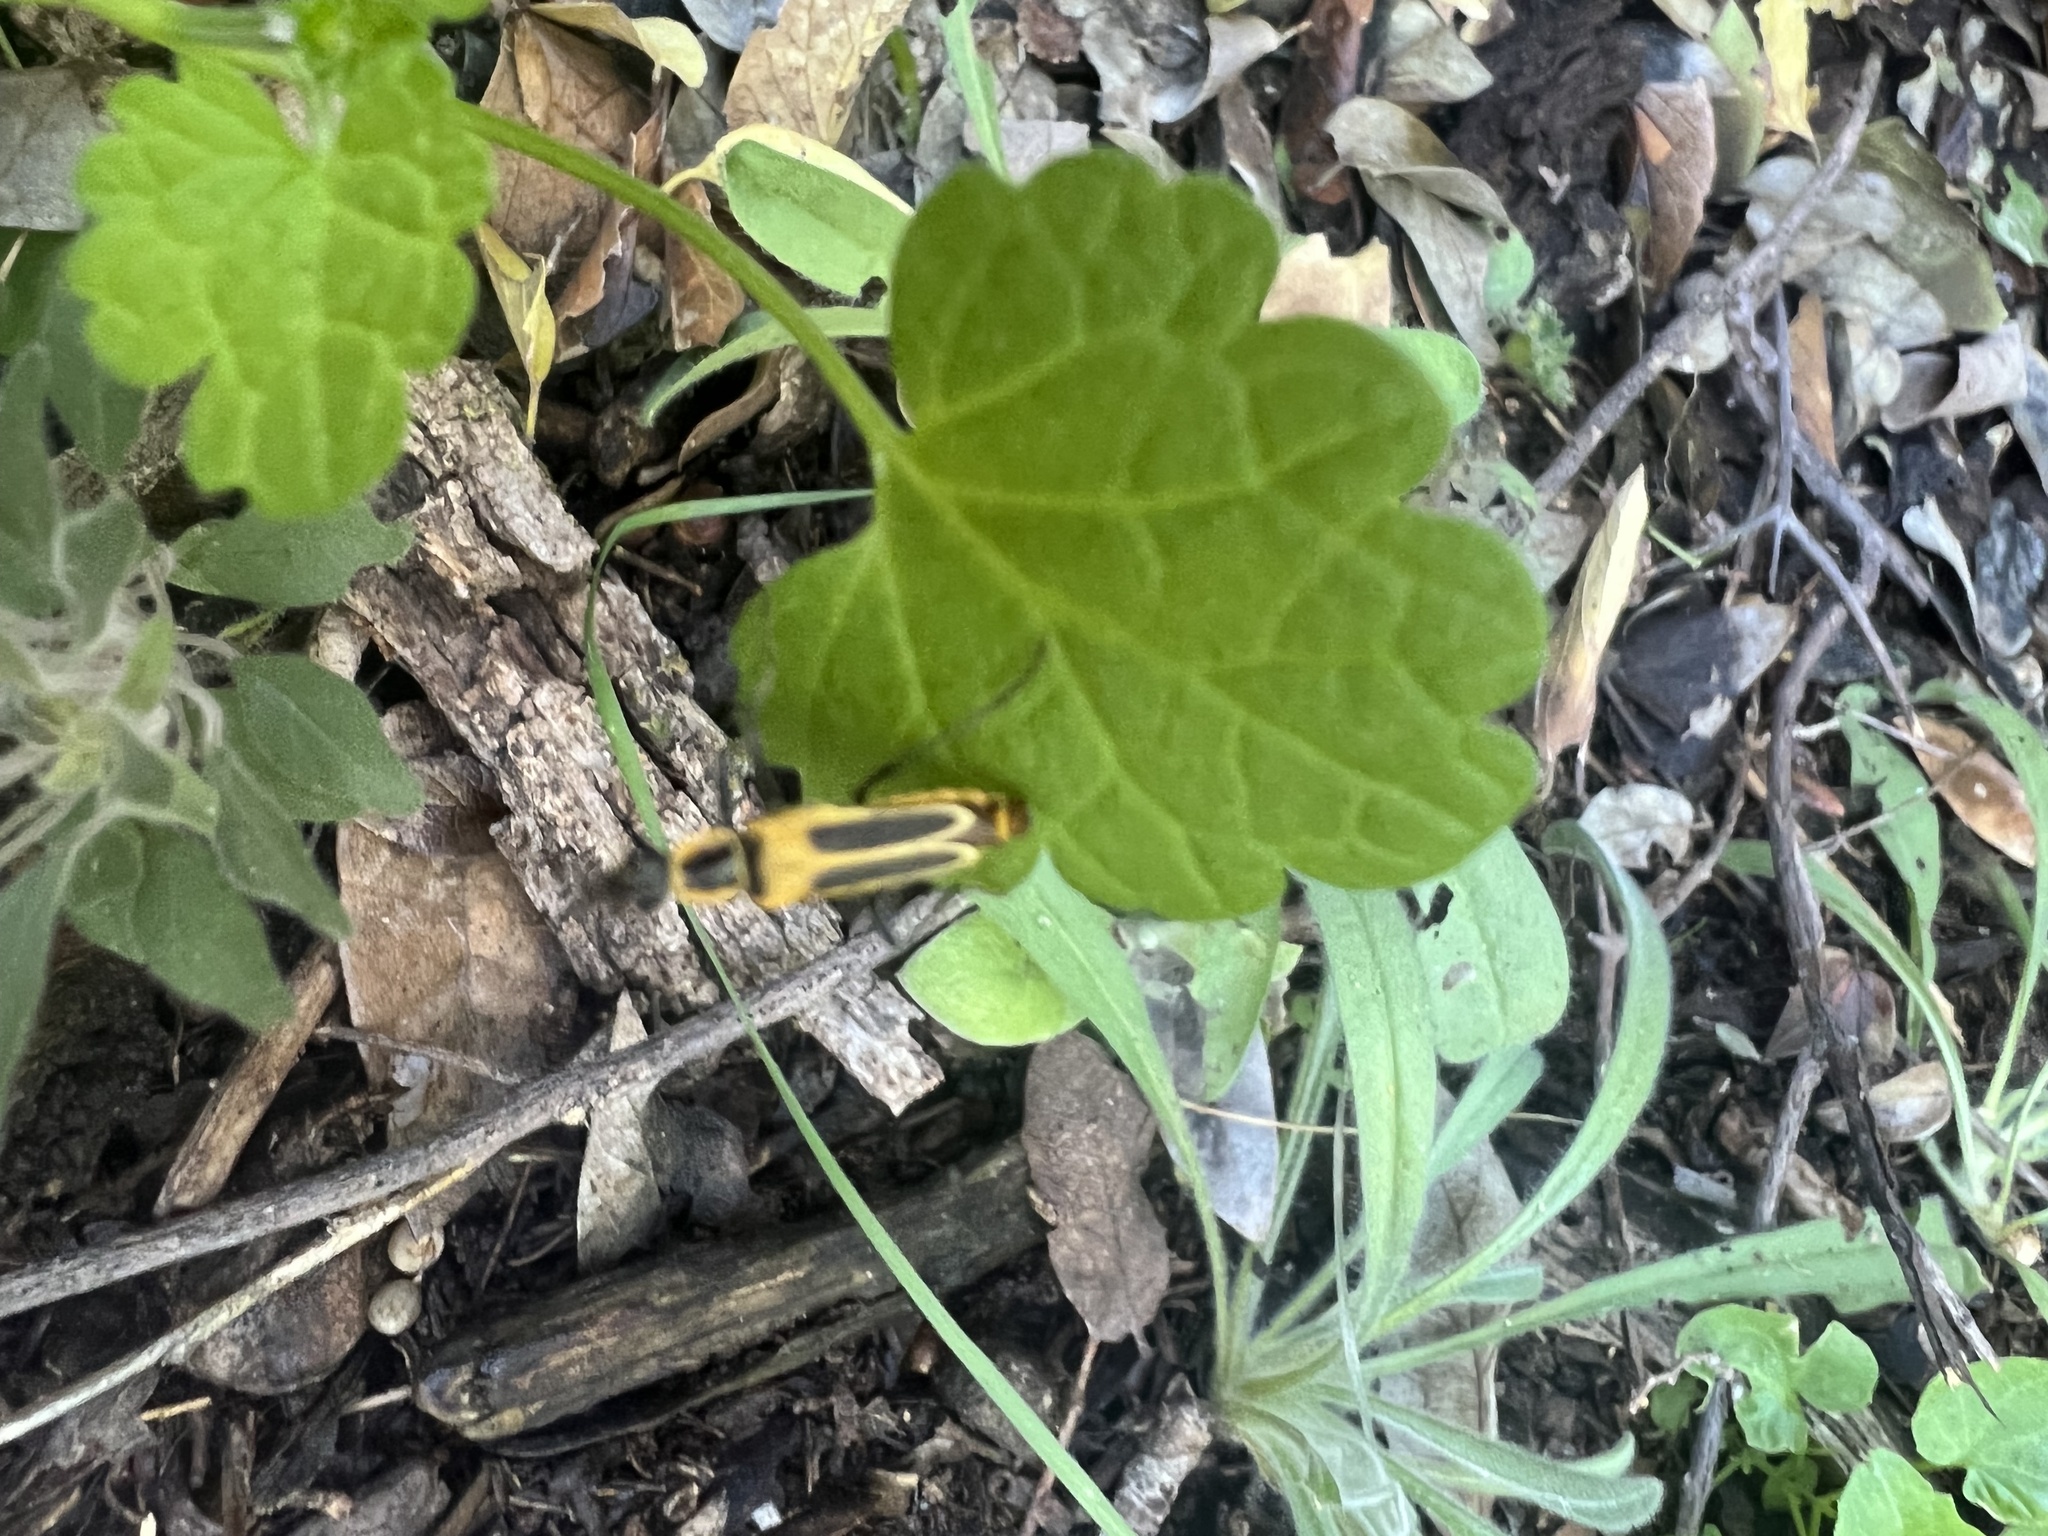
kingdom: Animalia
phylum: Arthropoda
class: Insecta
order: Coleoptera
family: Cantharidae
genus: Chauliognathus
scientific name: Chauliognathus lewisi
